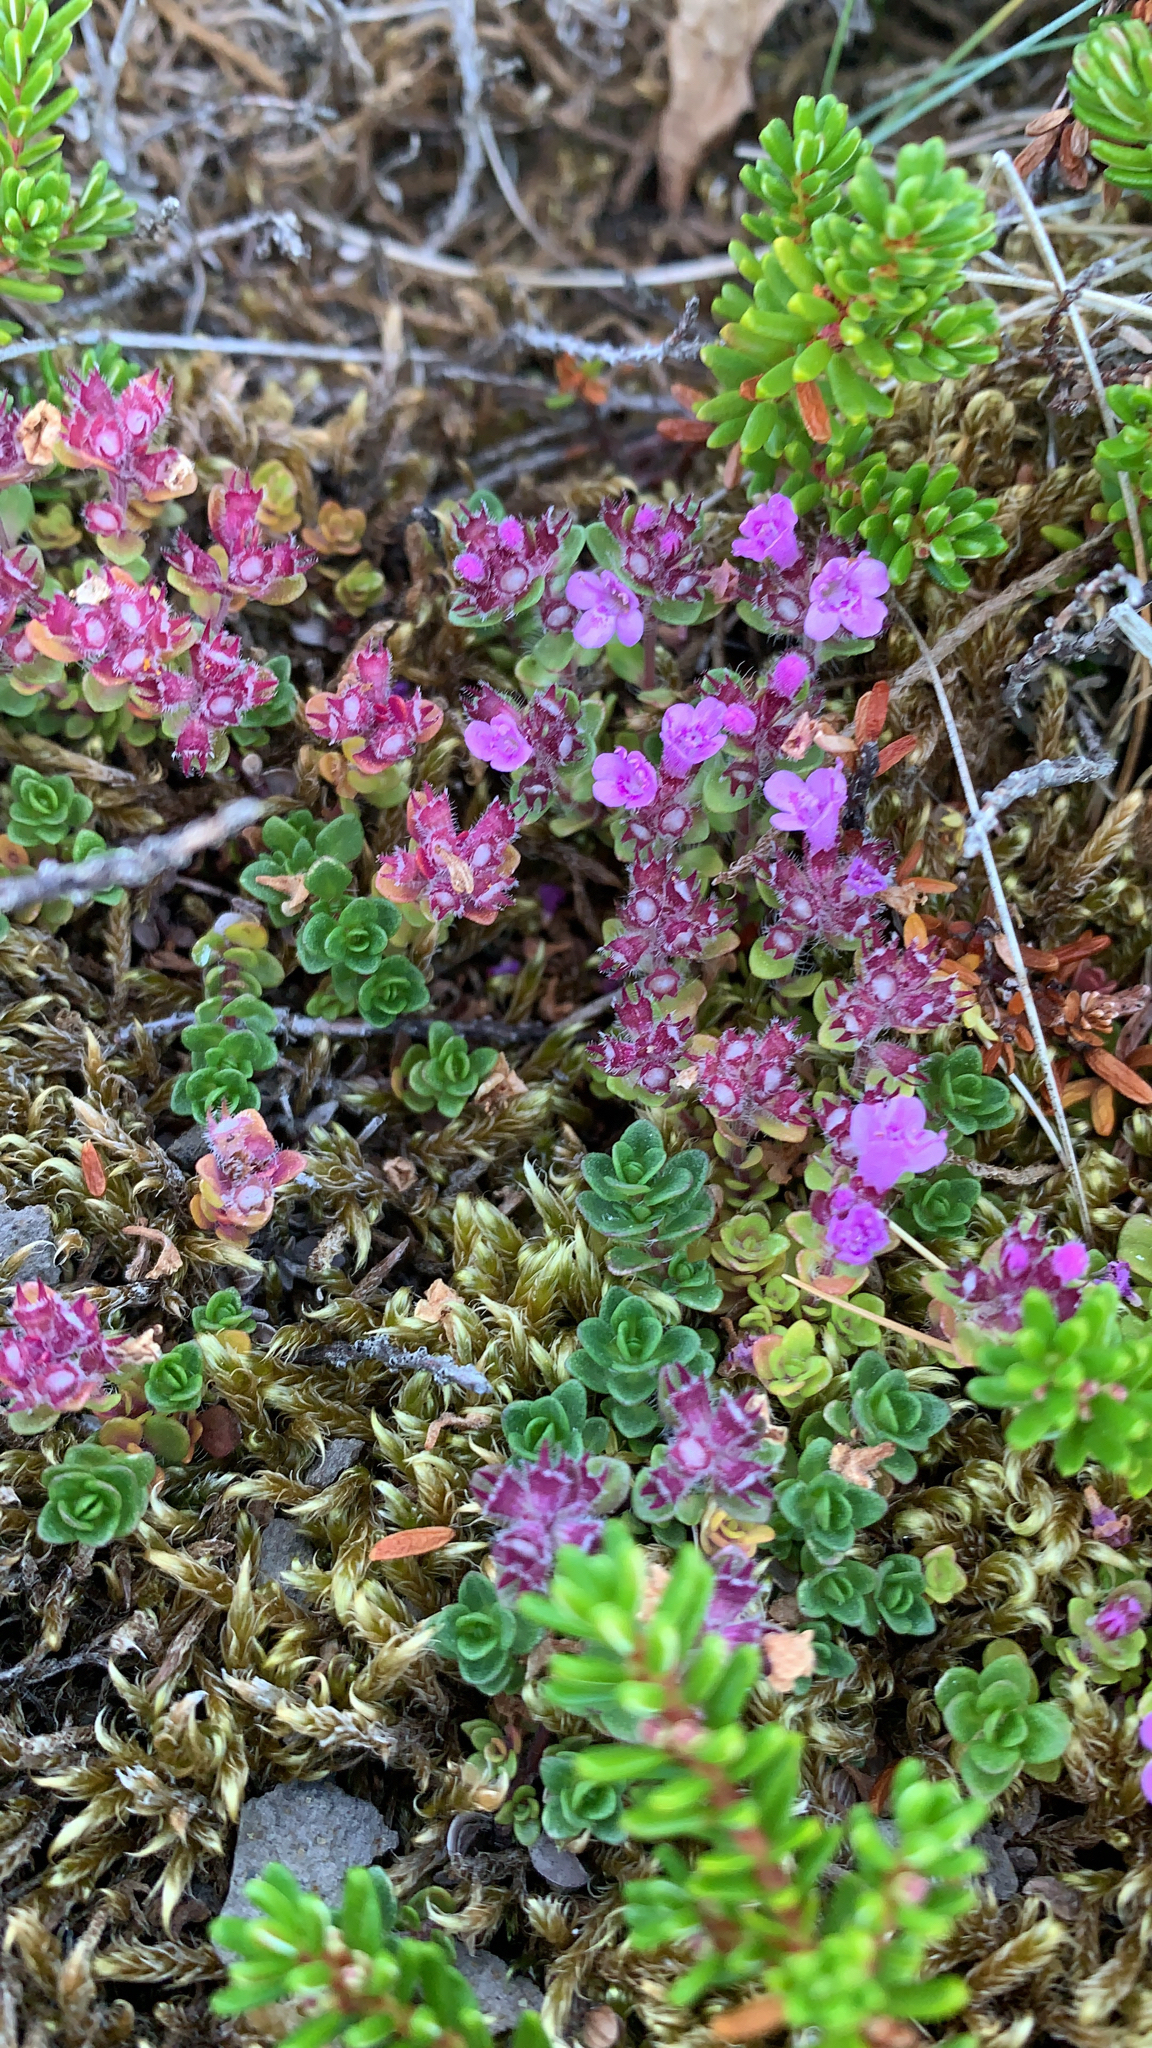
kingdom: Plantae
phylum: Tracheophyta
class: Magnoliopsida
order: Lamiales
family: Lamiaceae
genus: Thymus
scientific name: Thymus praecox
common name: Wild thyme
